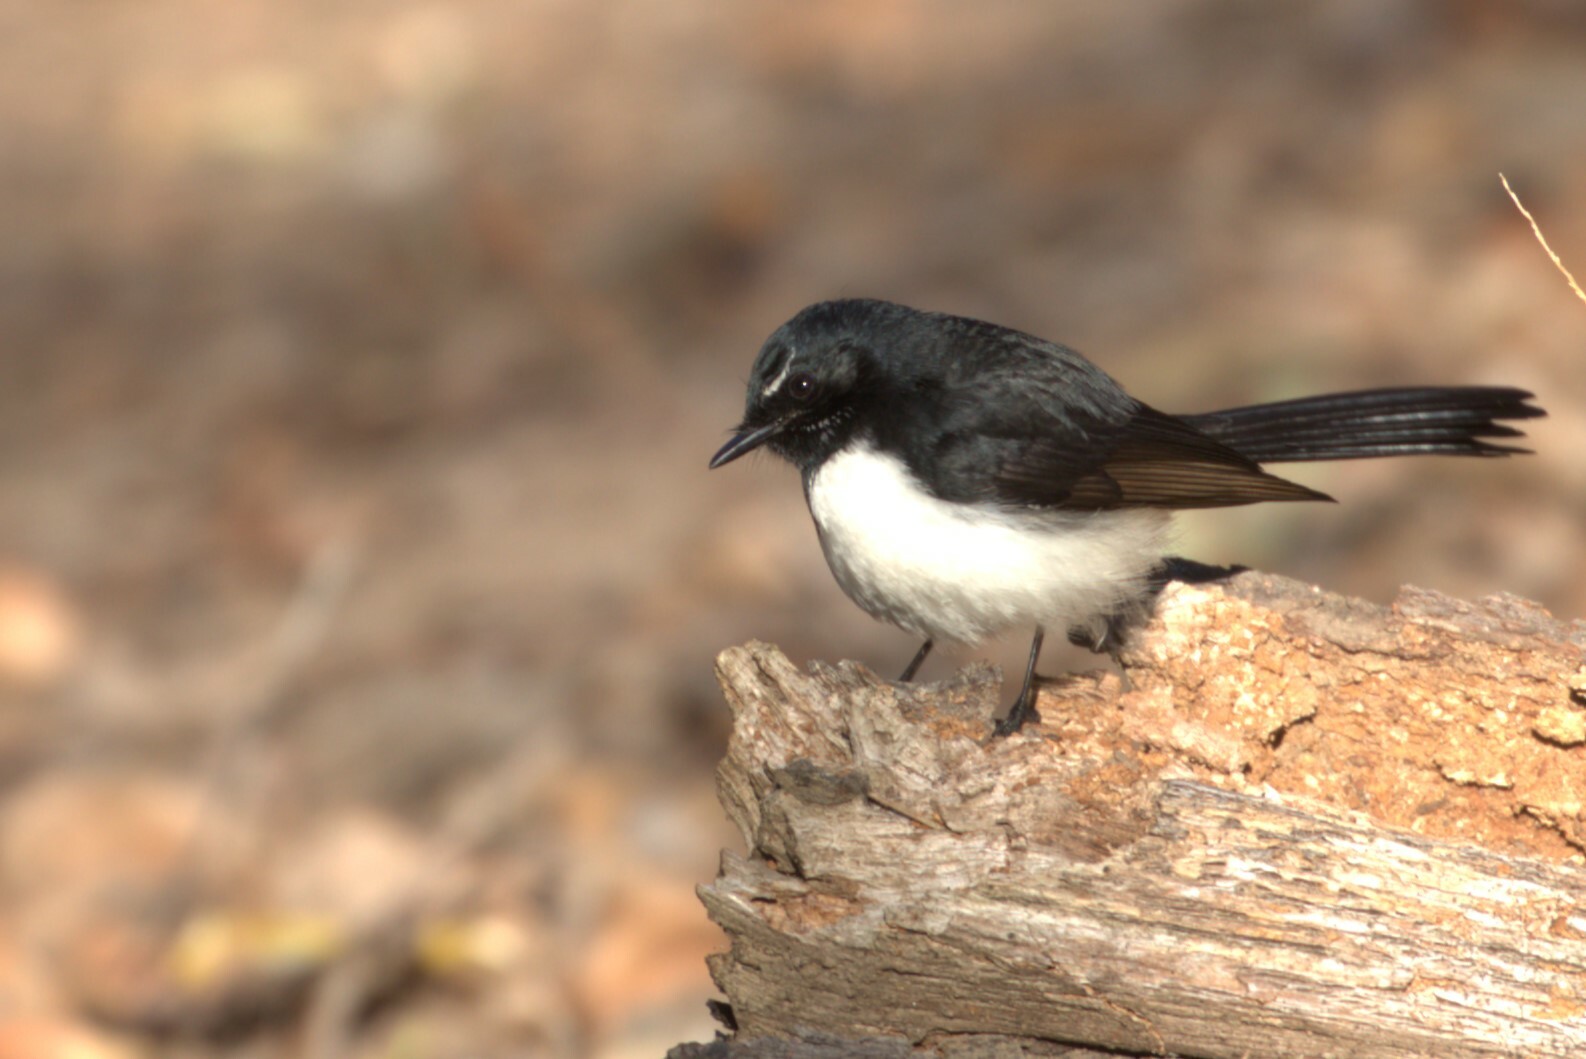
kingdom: Animalia
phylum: Chordata
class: Aves
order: Passeriformes
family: Rhipiduridae
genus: Rhipidura
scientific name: Rhipidura leucophrys
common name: Willie wagtail
